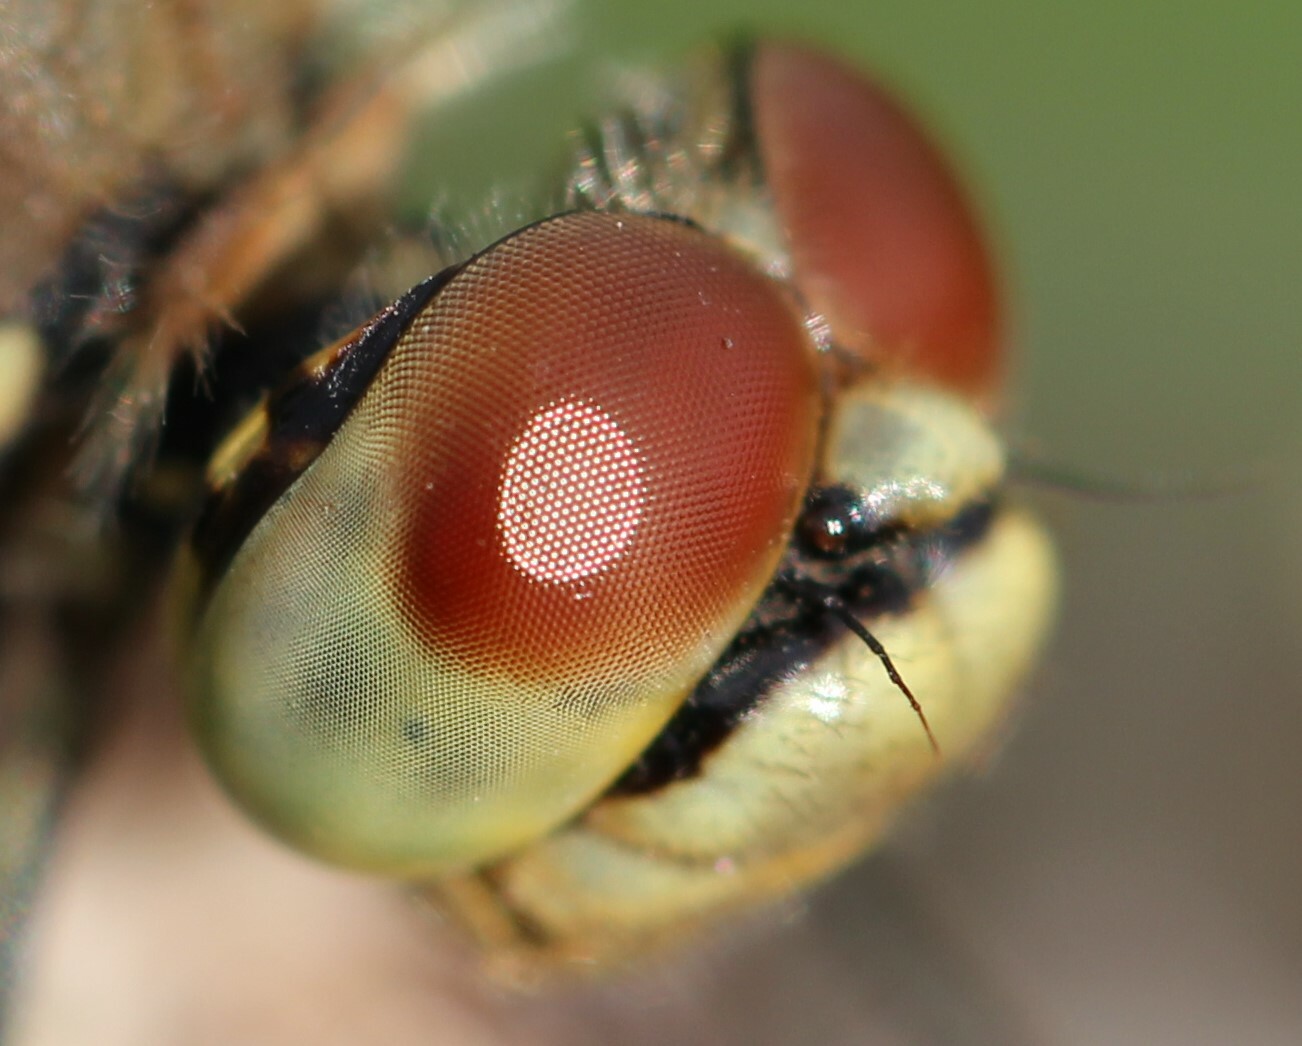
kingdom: Animalia
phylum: Arthropoda
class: Insecta
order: Odonata
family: Libellulidae
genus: Sympetrum
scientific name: Sympetrum flaveolum
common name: Yellow-winged darter
